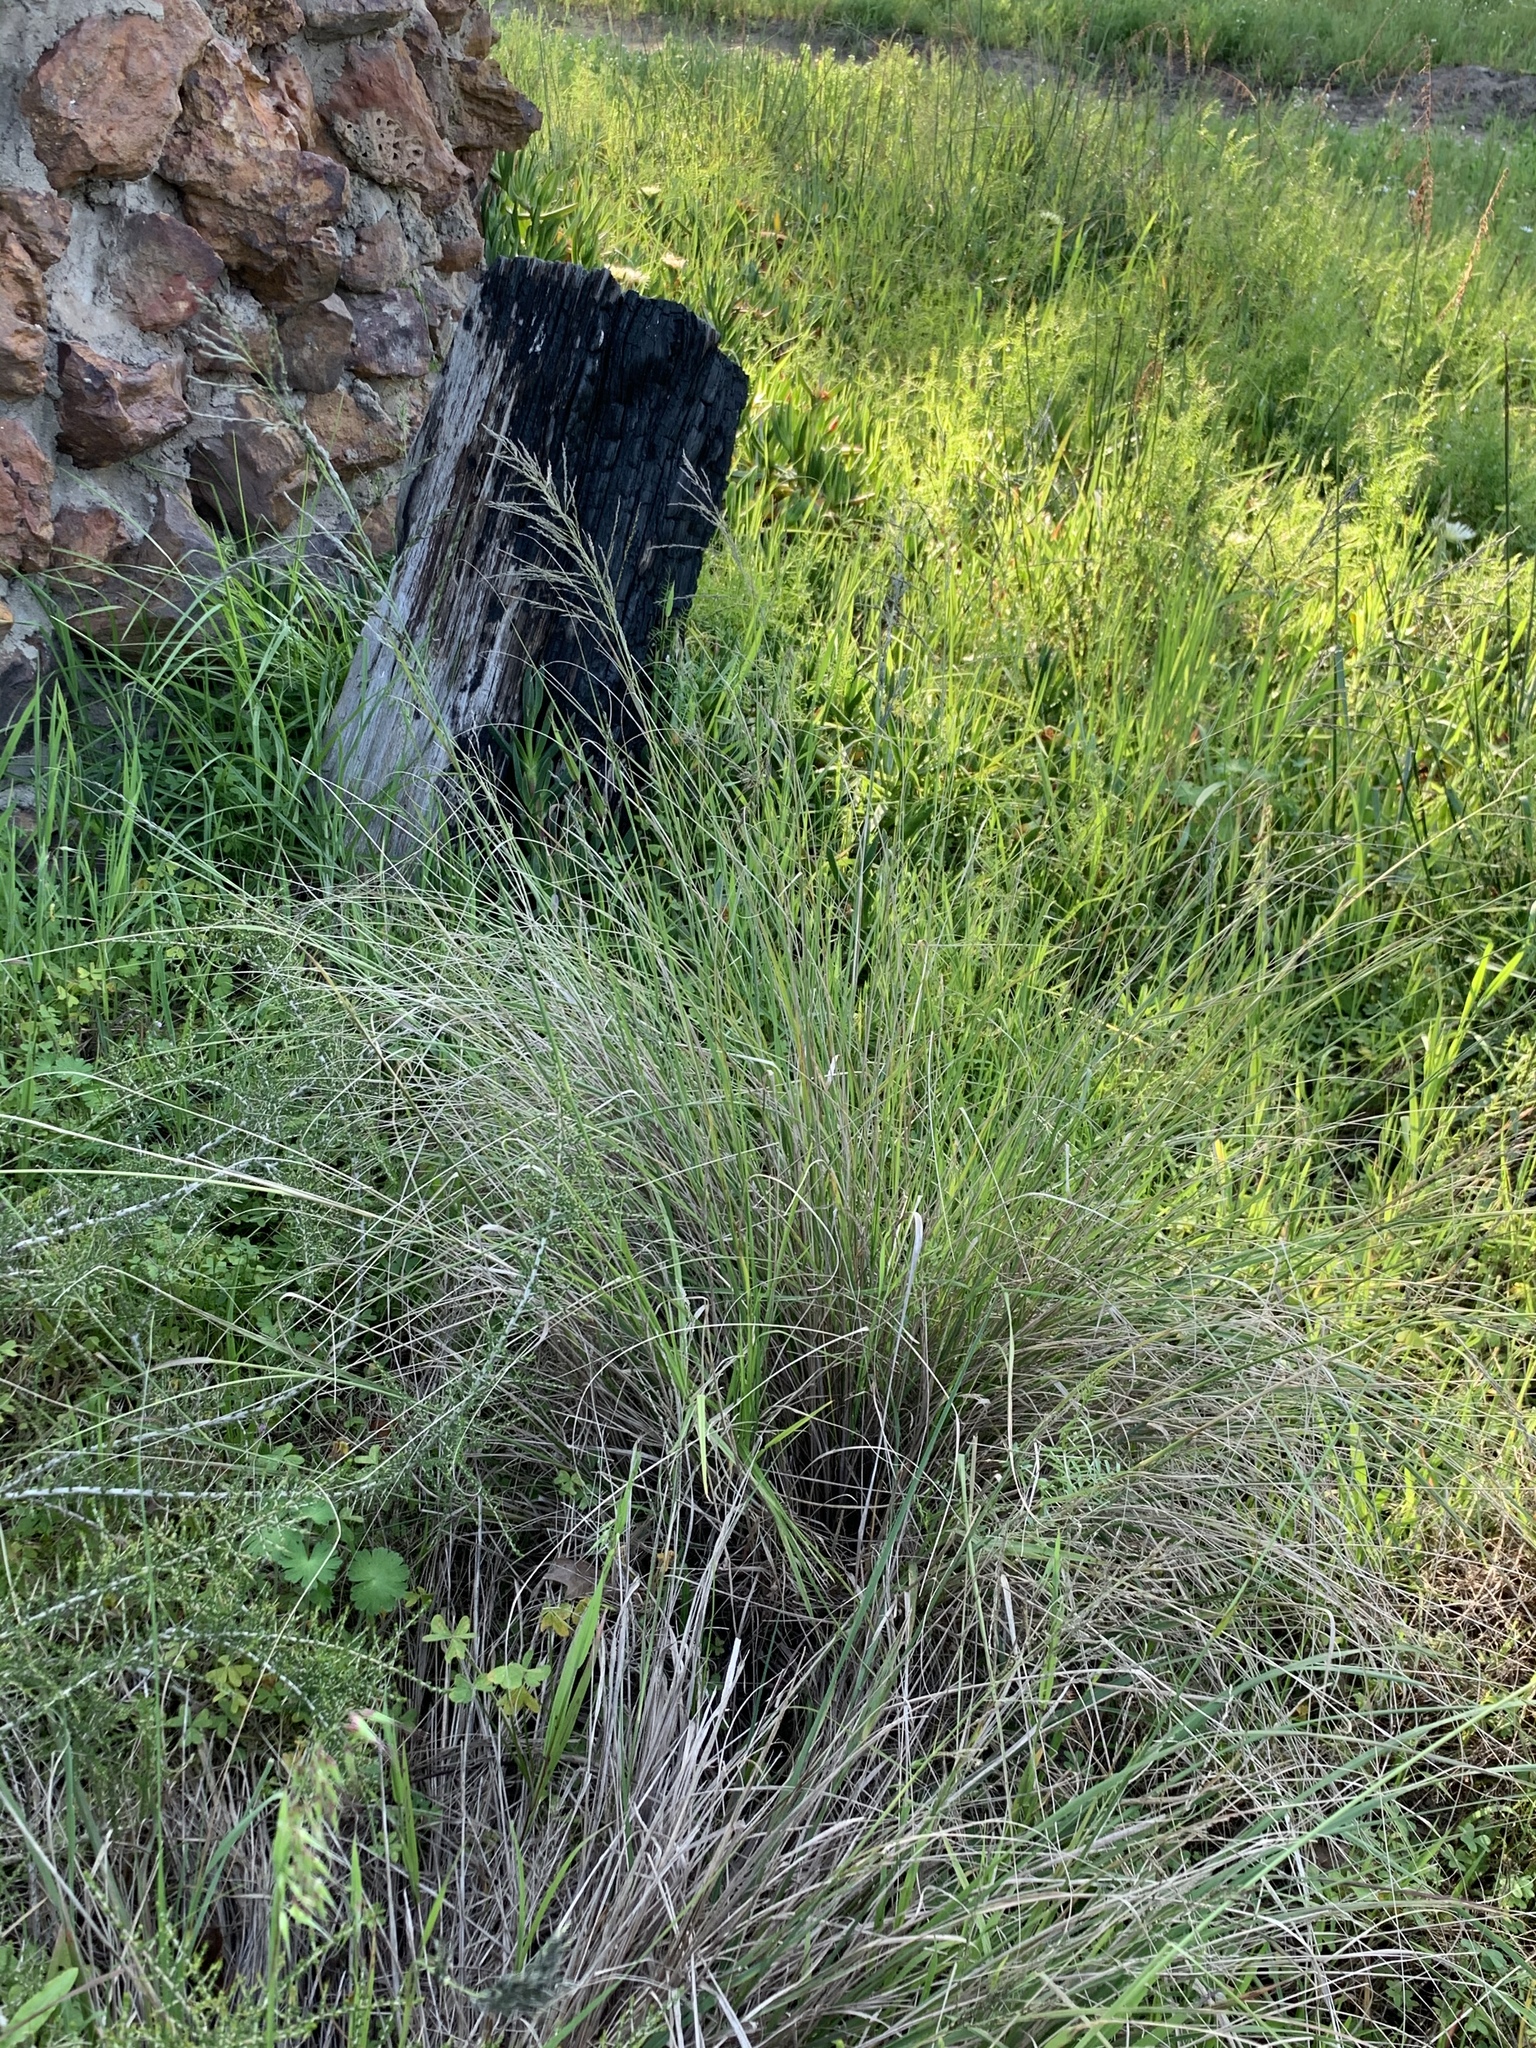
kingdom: Plantae
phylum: Tracheophyta
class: Liliopsida
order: Poales
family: Poaceae
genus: Eragrostis
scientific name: Eragrostis curvula
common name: African love-grass
